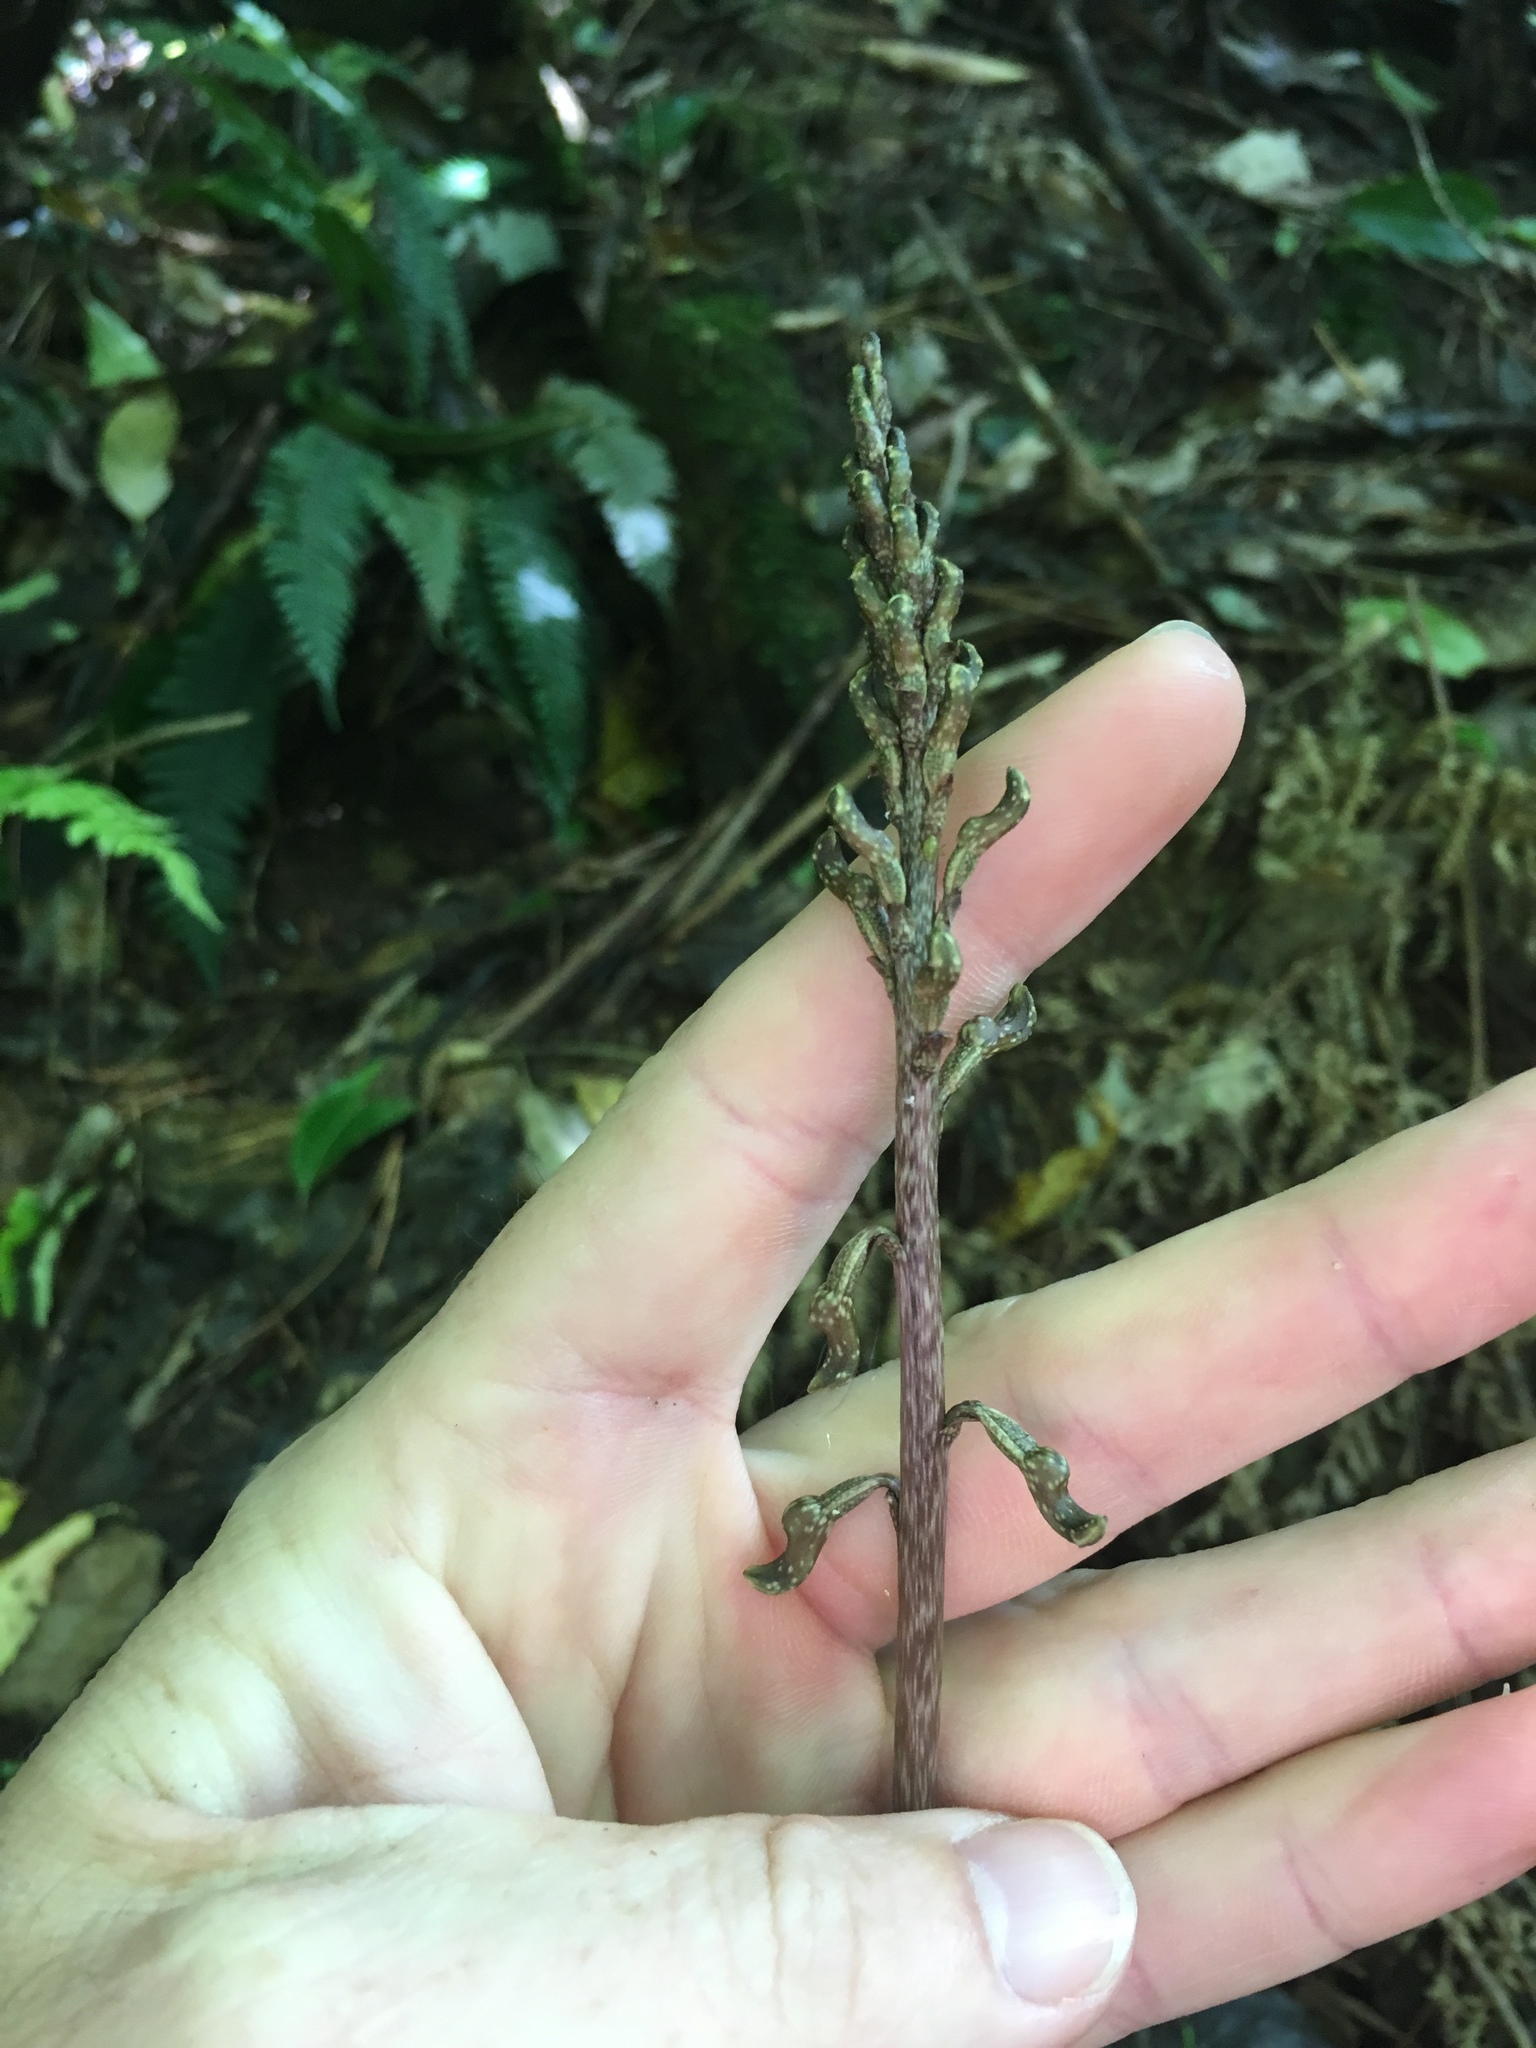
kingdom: Plantae
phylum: Tracheophyta
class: Liliopsida
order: Asparagales
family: Orchidaceae
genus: Gastrodia
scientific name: Gastrodia cunninghamii
